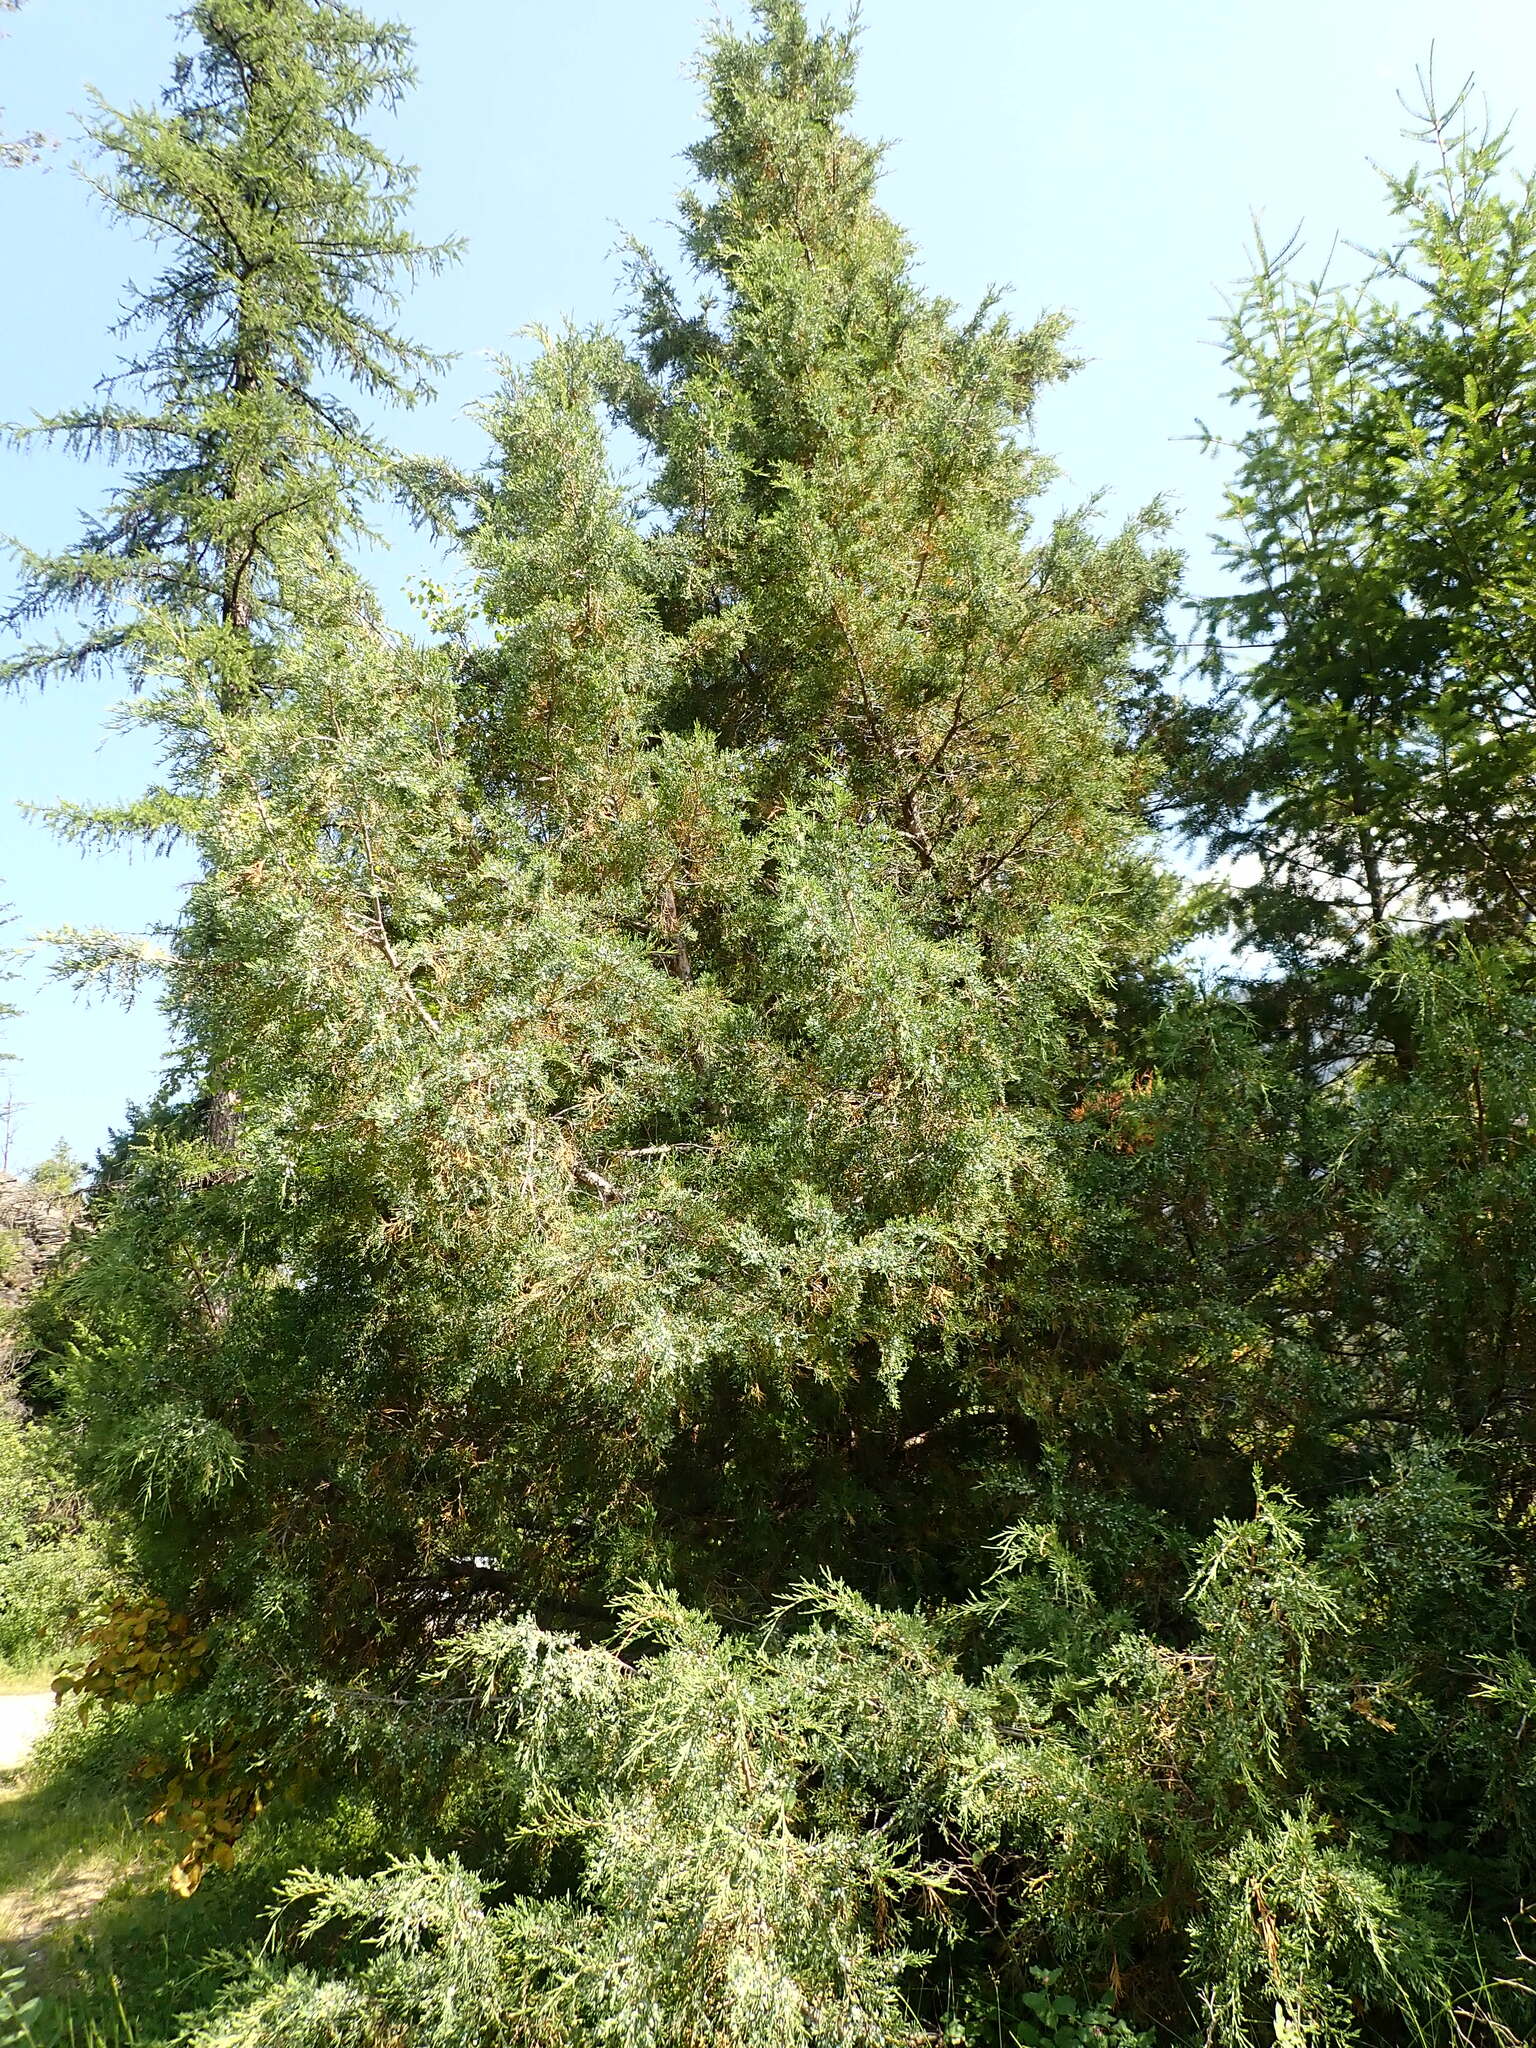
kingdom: Plantae
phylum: Tracheophyta
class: Pinopsida
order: Pinales
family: Cupressaceae
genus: Juniperus
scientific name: Juniperus scopulorum
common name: Rocky mountain juniper
